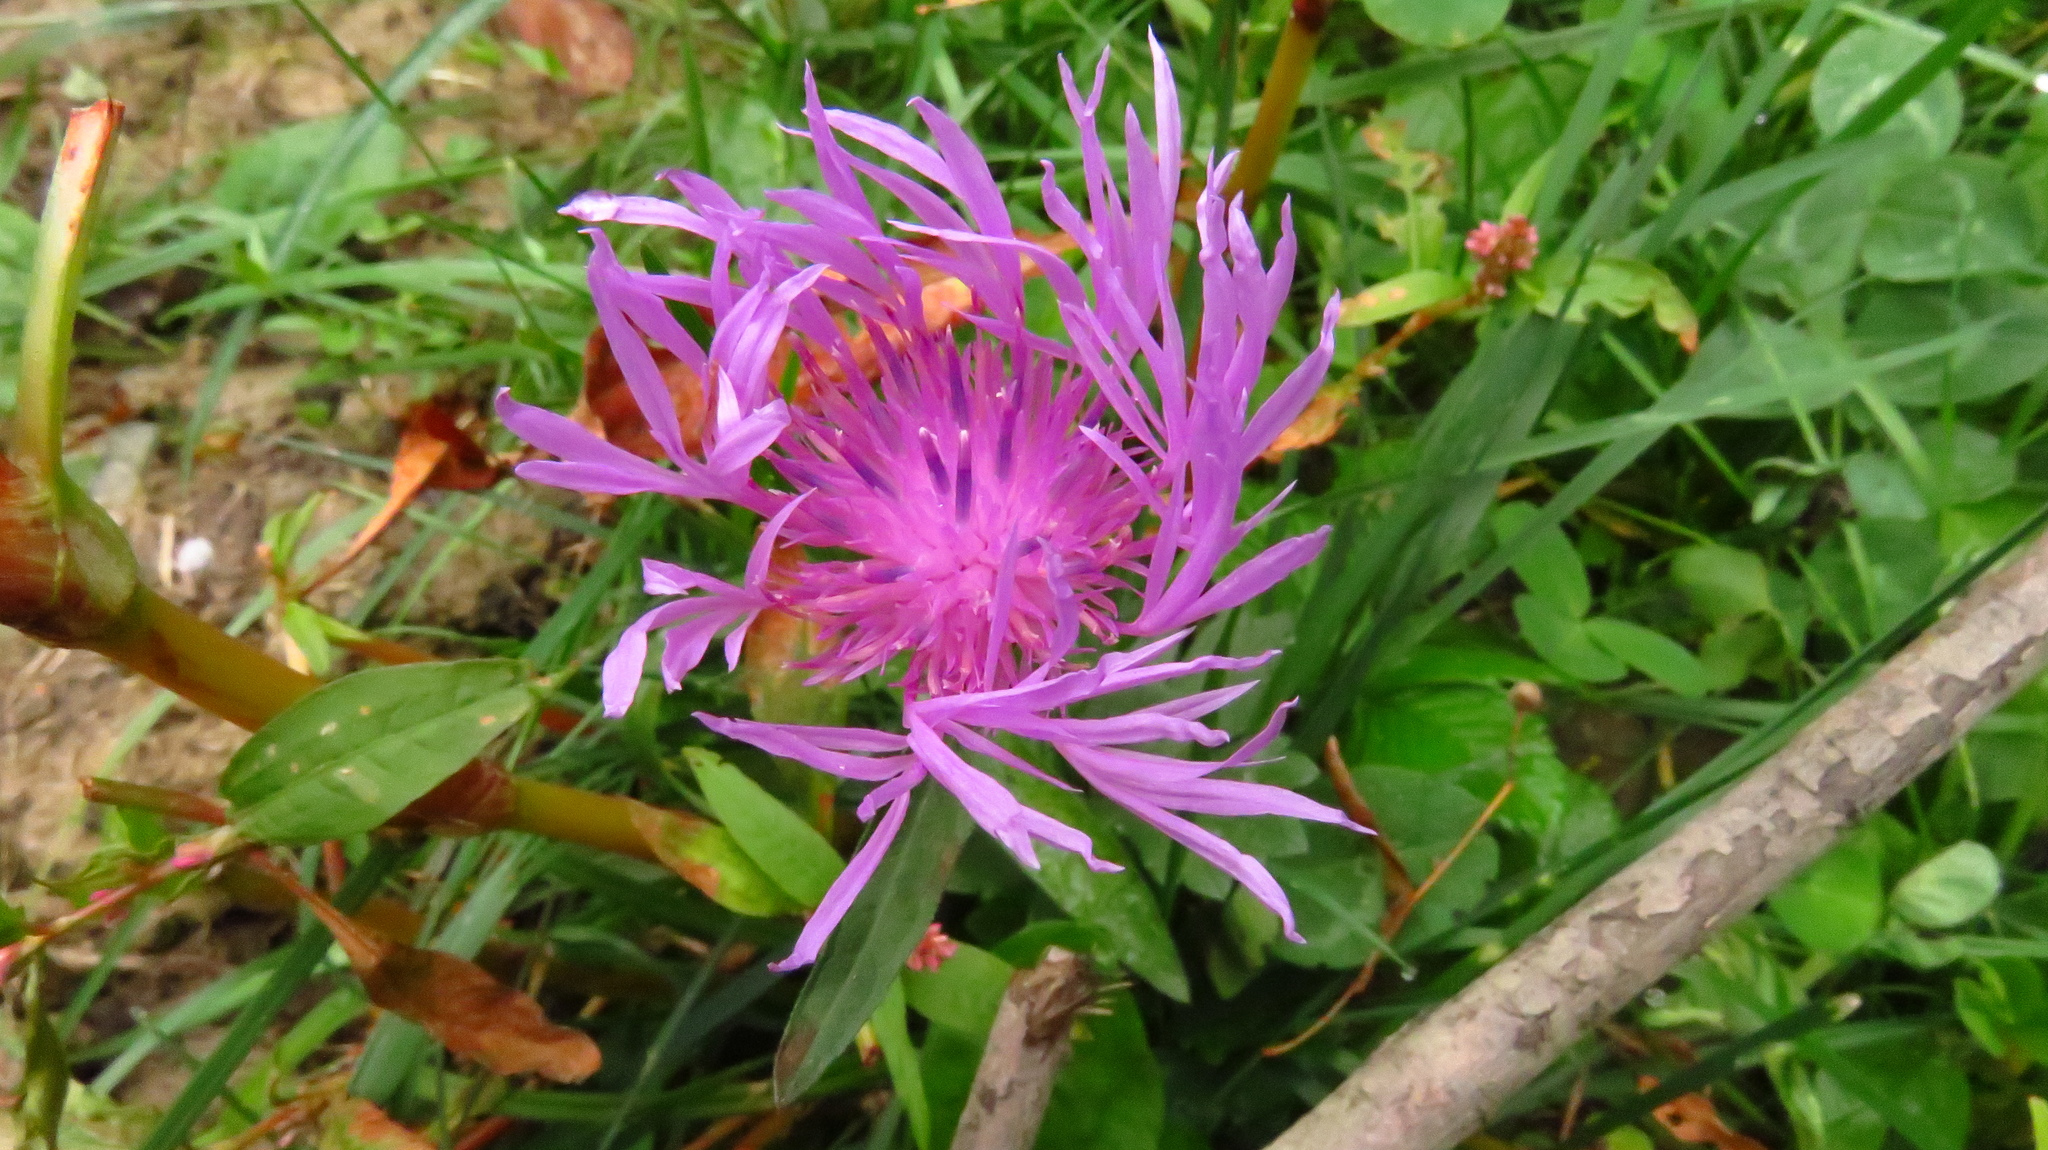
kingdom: Plantae
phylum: Tracheophyta
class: Magnoliopsida
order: Asterales
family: Asteraceae
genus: Centaurea
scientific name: Centaurea jacea
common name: Brown knapweed
